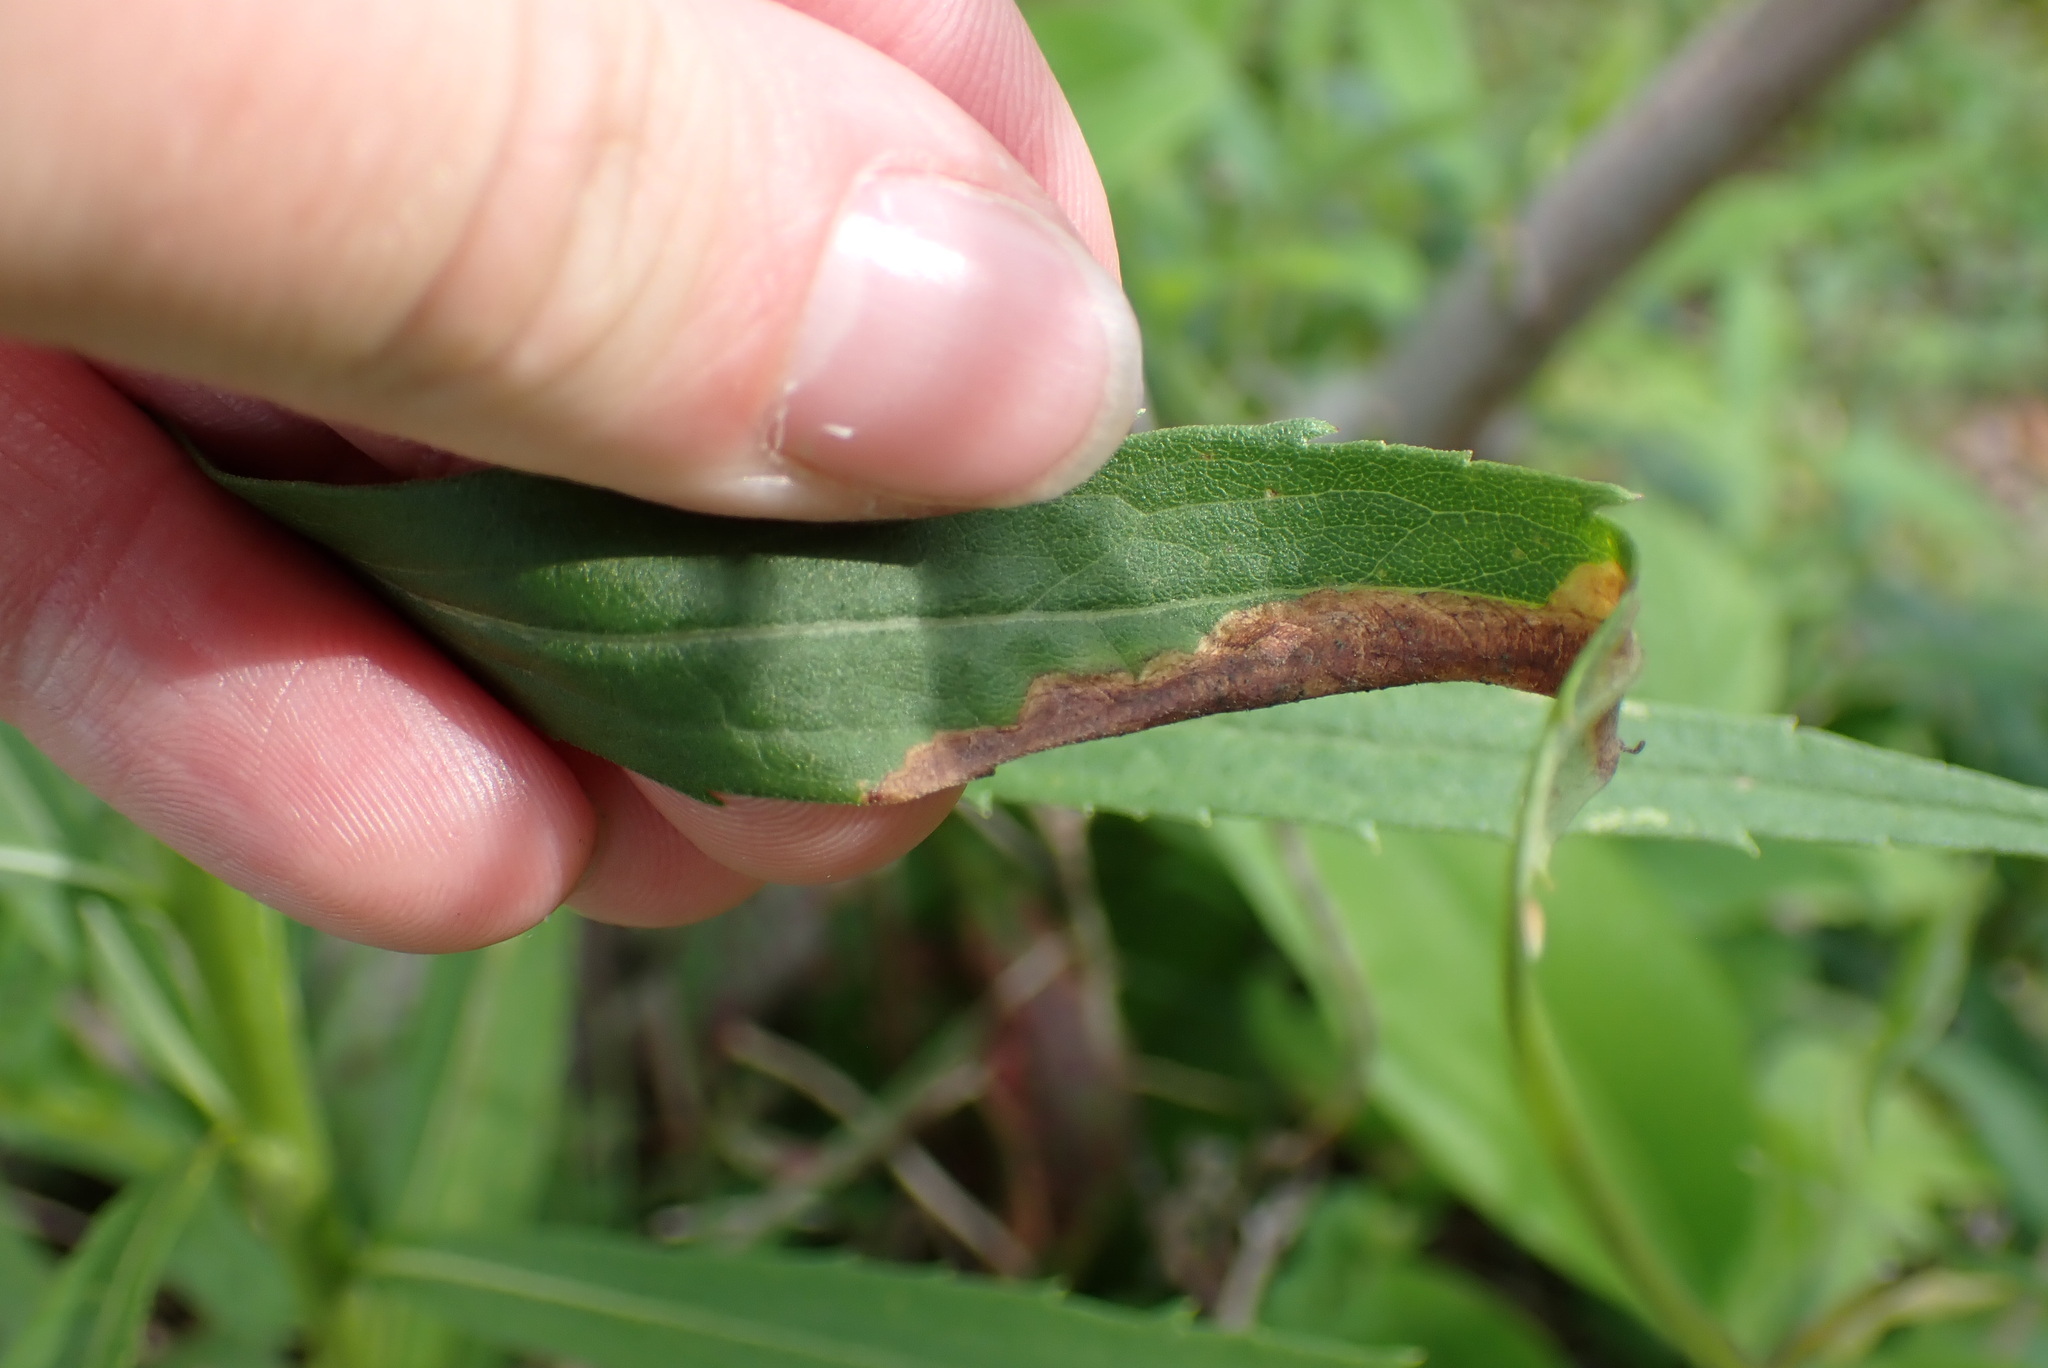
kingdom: Animalia
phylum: Arthropoda
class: Insecta
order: Diptera
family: Agromyzidae
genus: Nemorimyza
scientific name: Nemorimyza posticata
